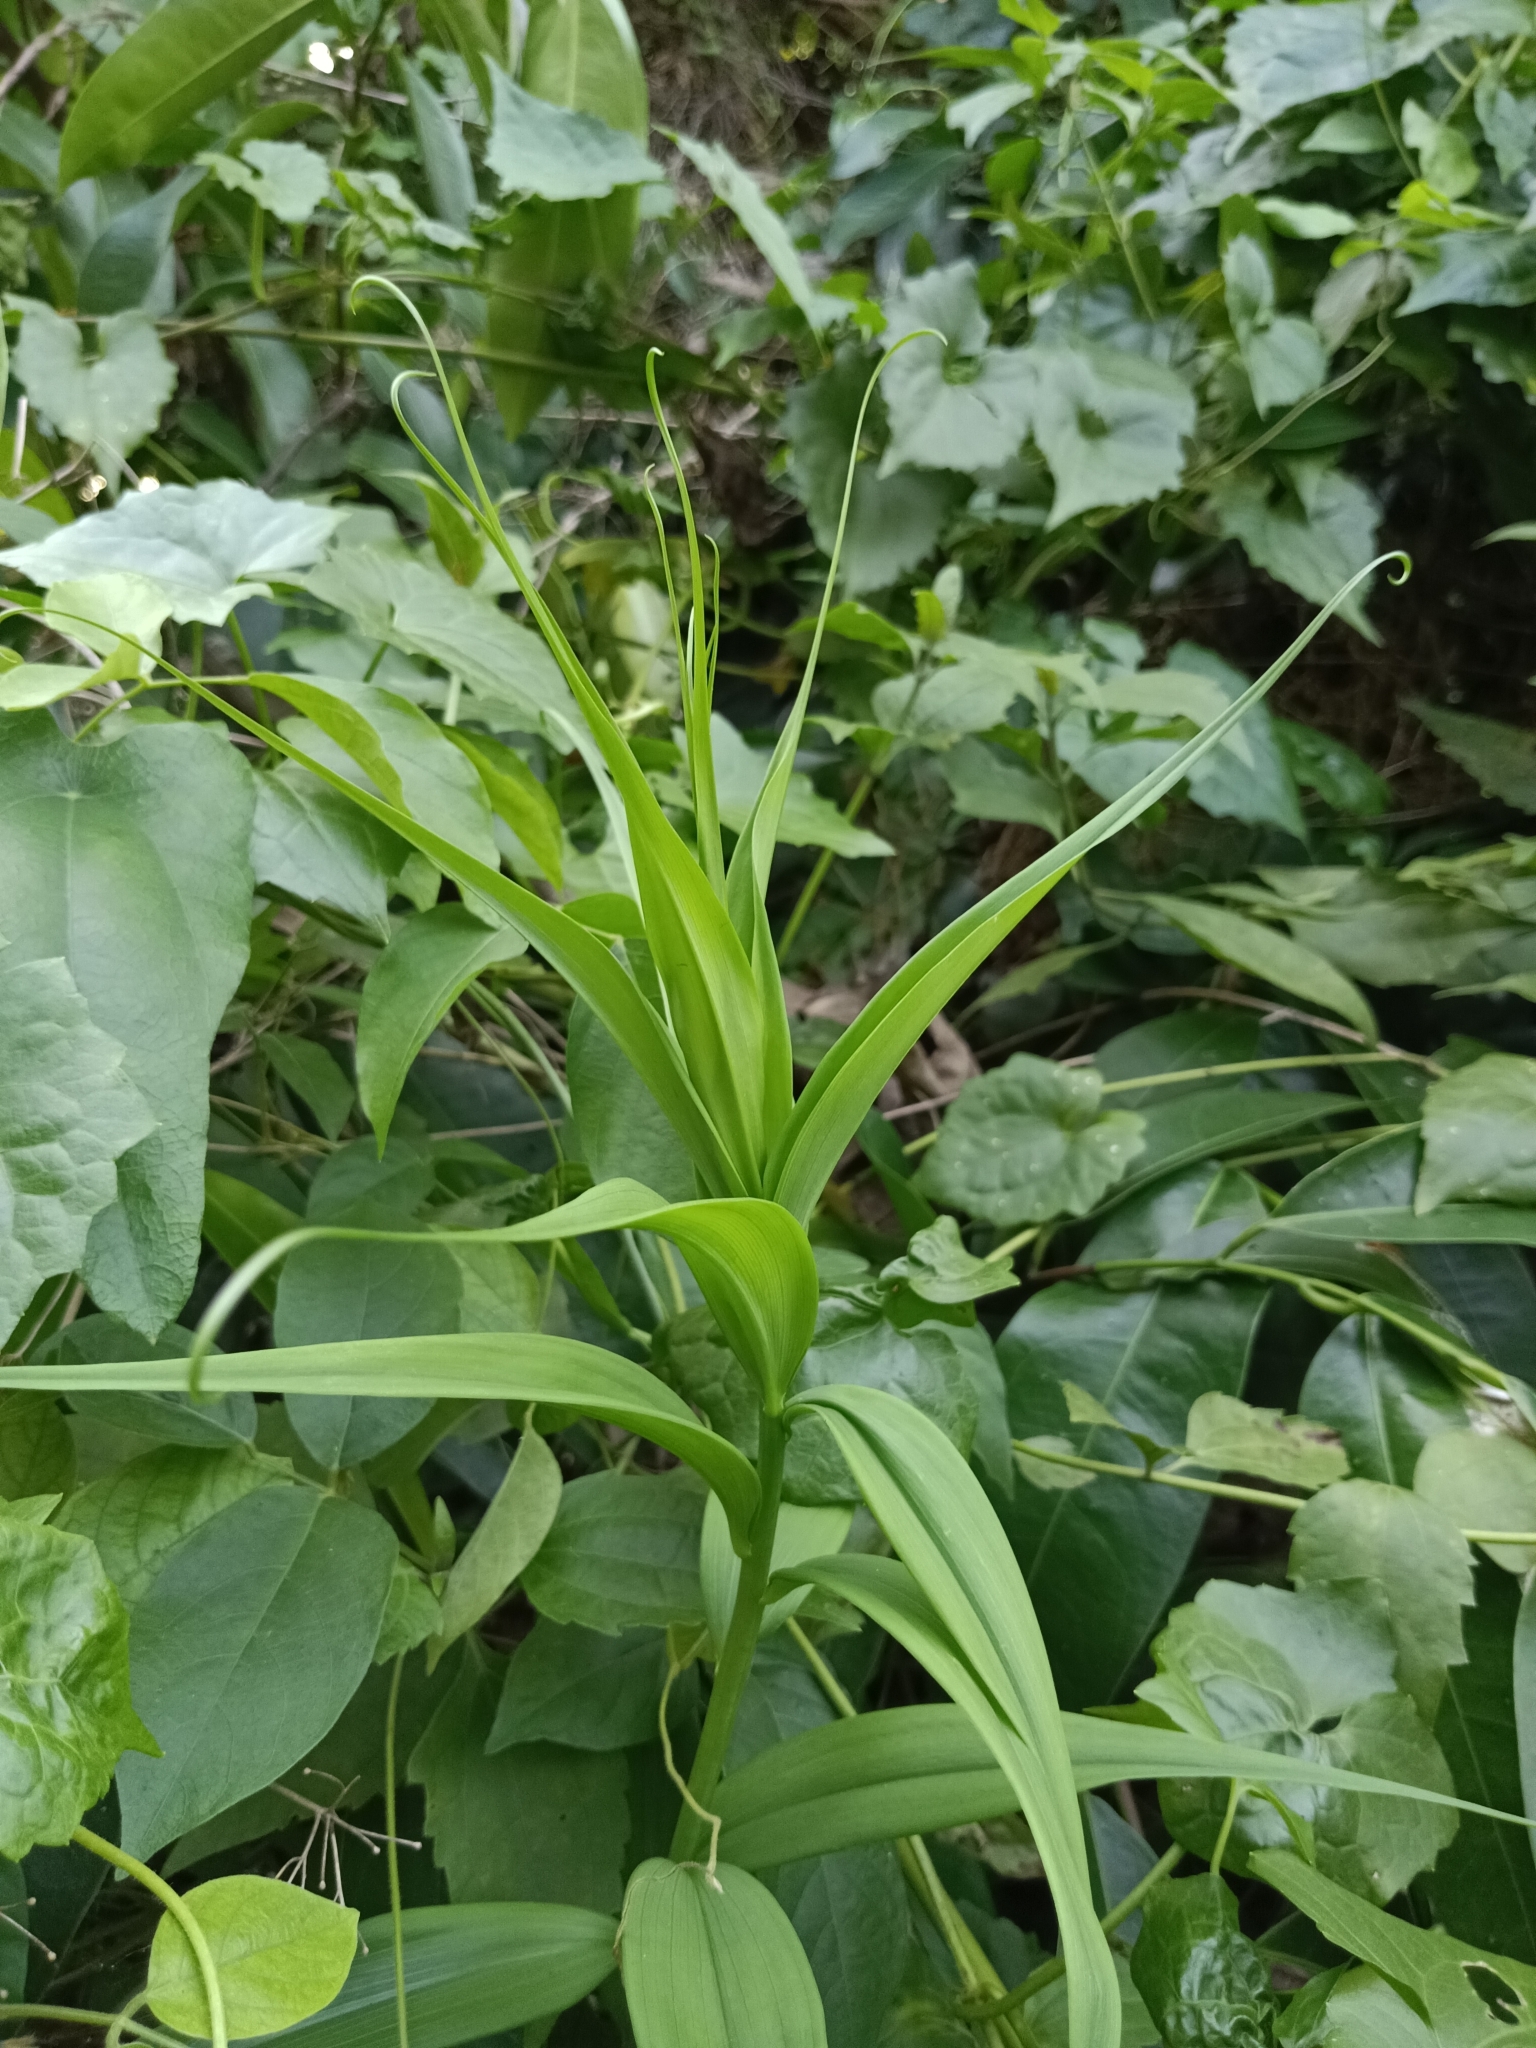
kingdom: Plantae
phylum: Tracheophyta
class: Liliopsida
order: Liliales
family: Colchicaceae
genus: Gloriosa
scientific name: Gloriosa superba
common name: Flame lily
